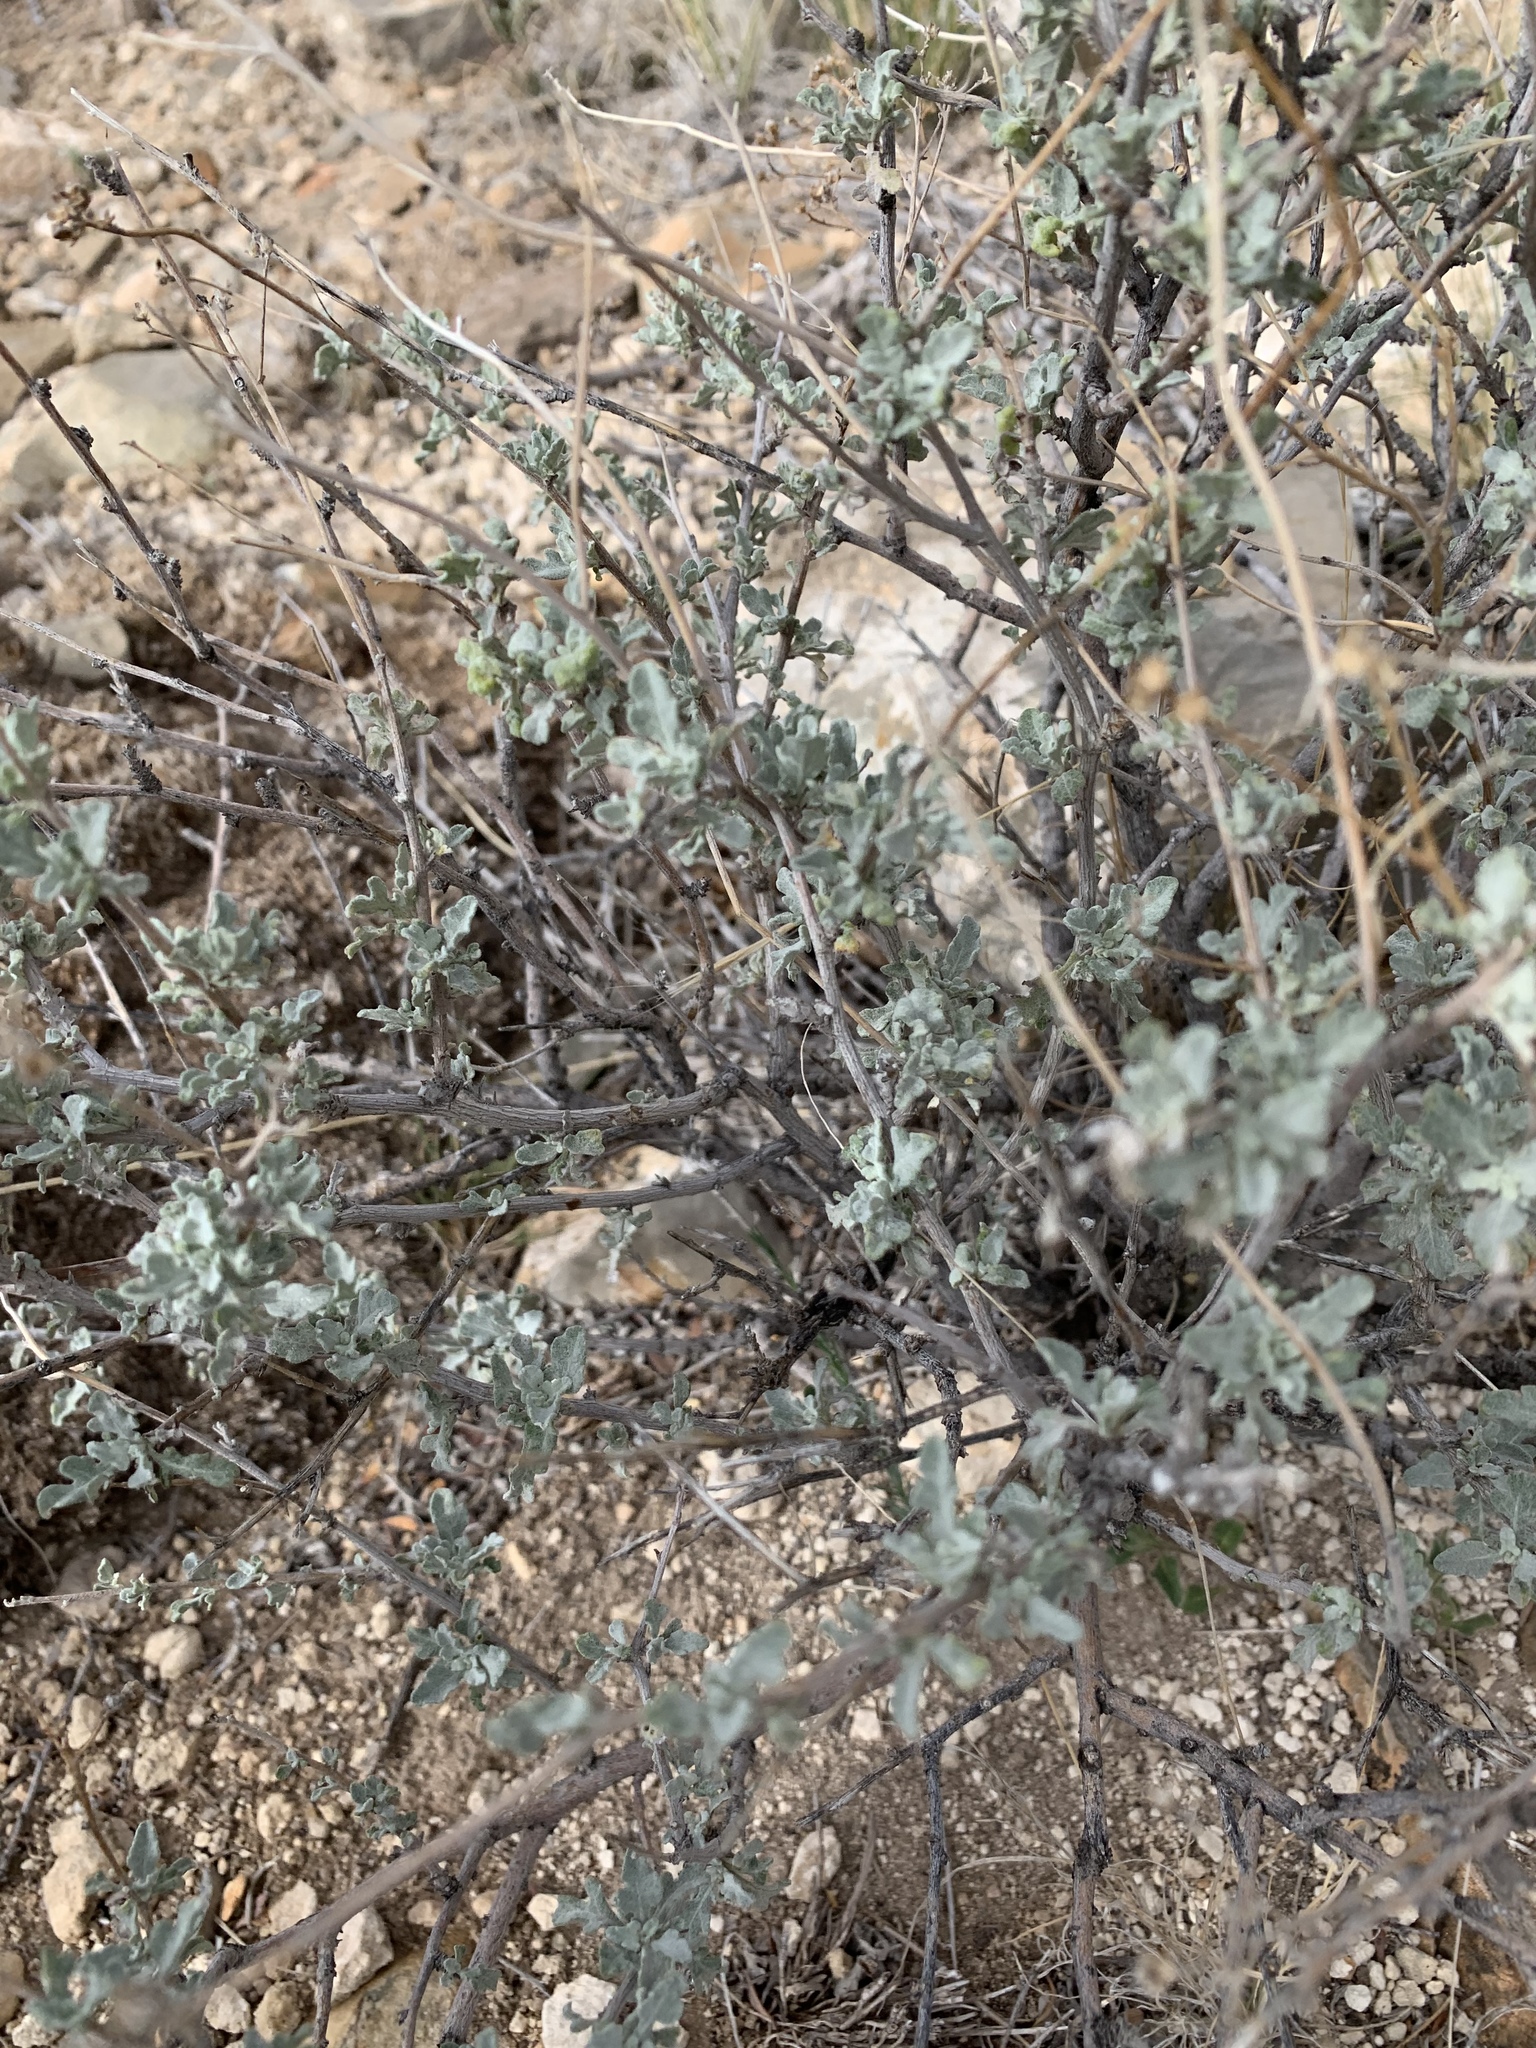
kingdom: Plantae
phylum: Tracheophyta
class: Magnoliopsida
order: Asterales
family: Asteraceae
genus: Parthenium
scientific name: Parthenium incanum
